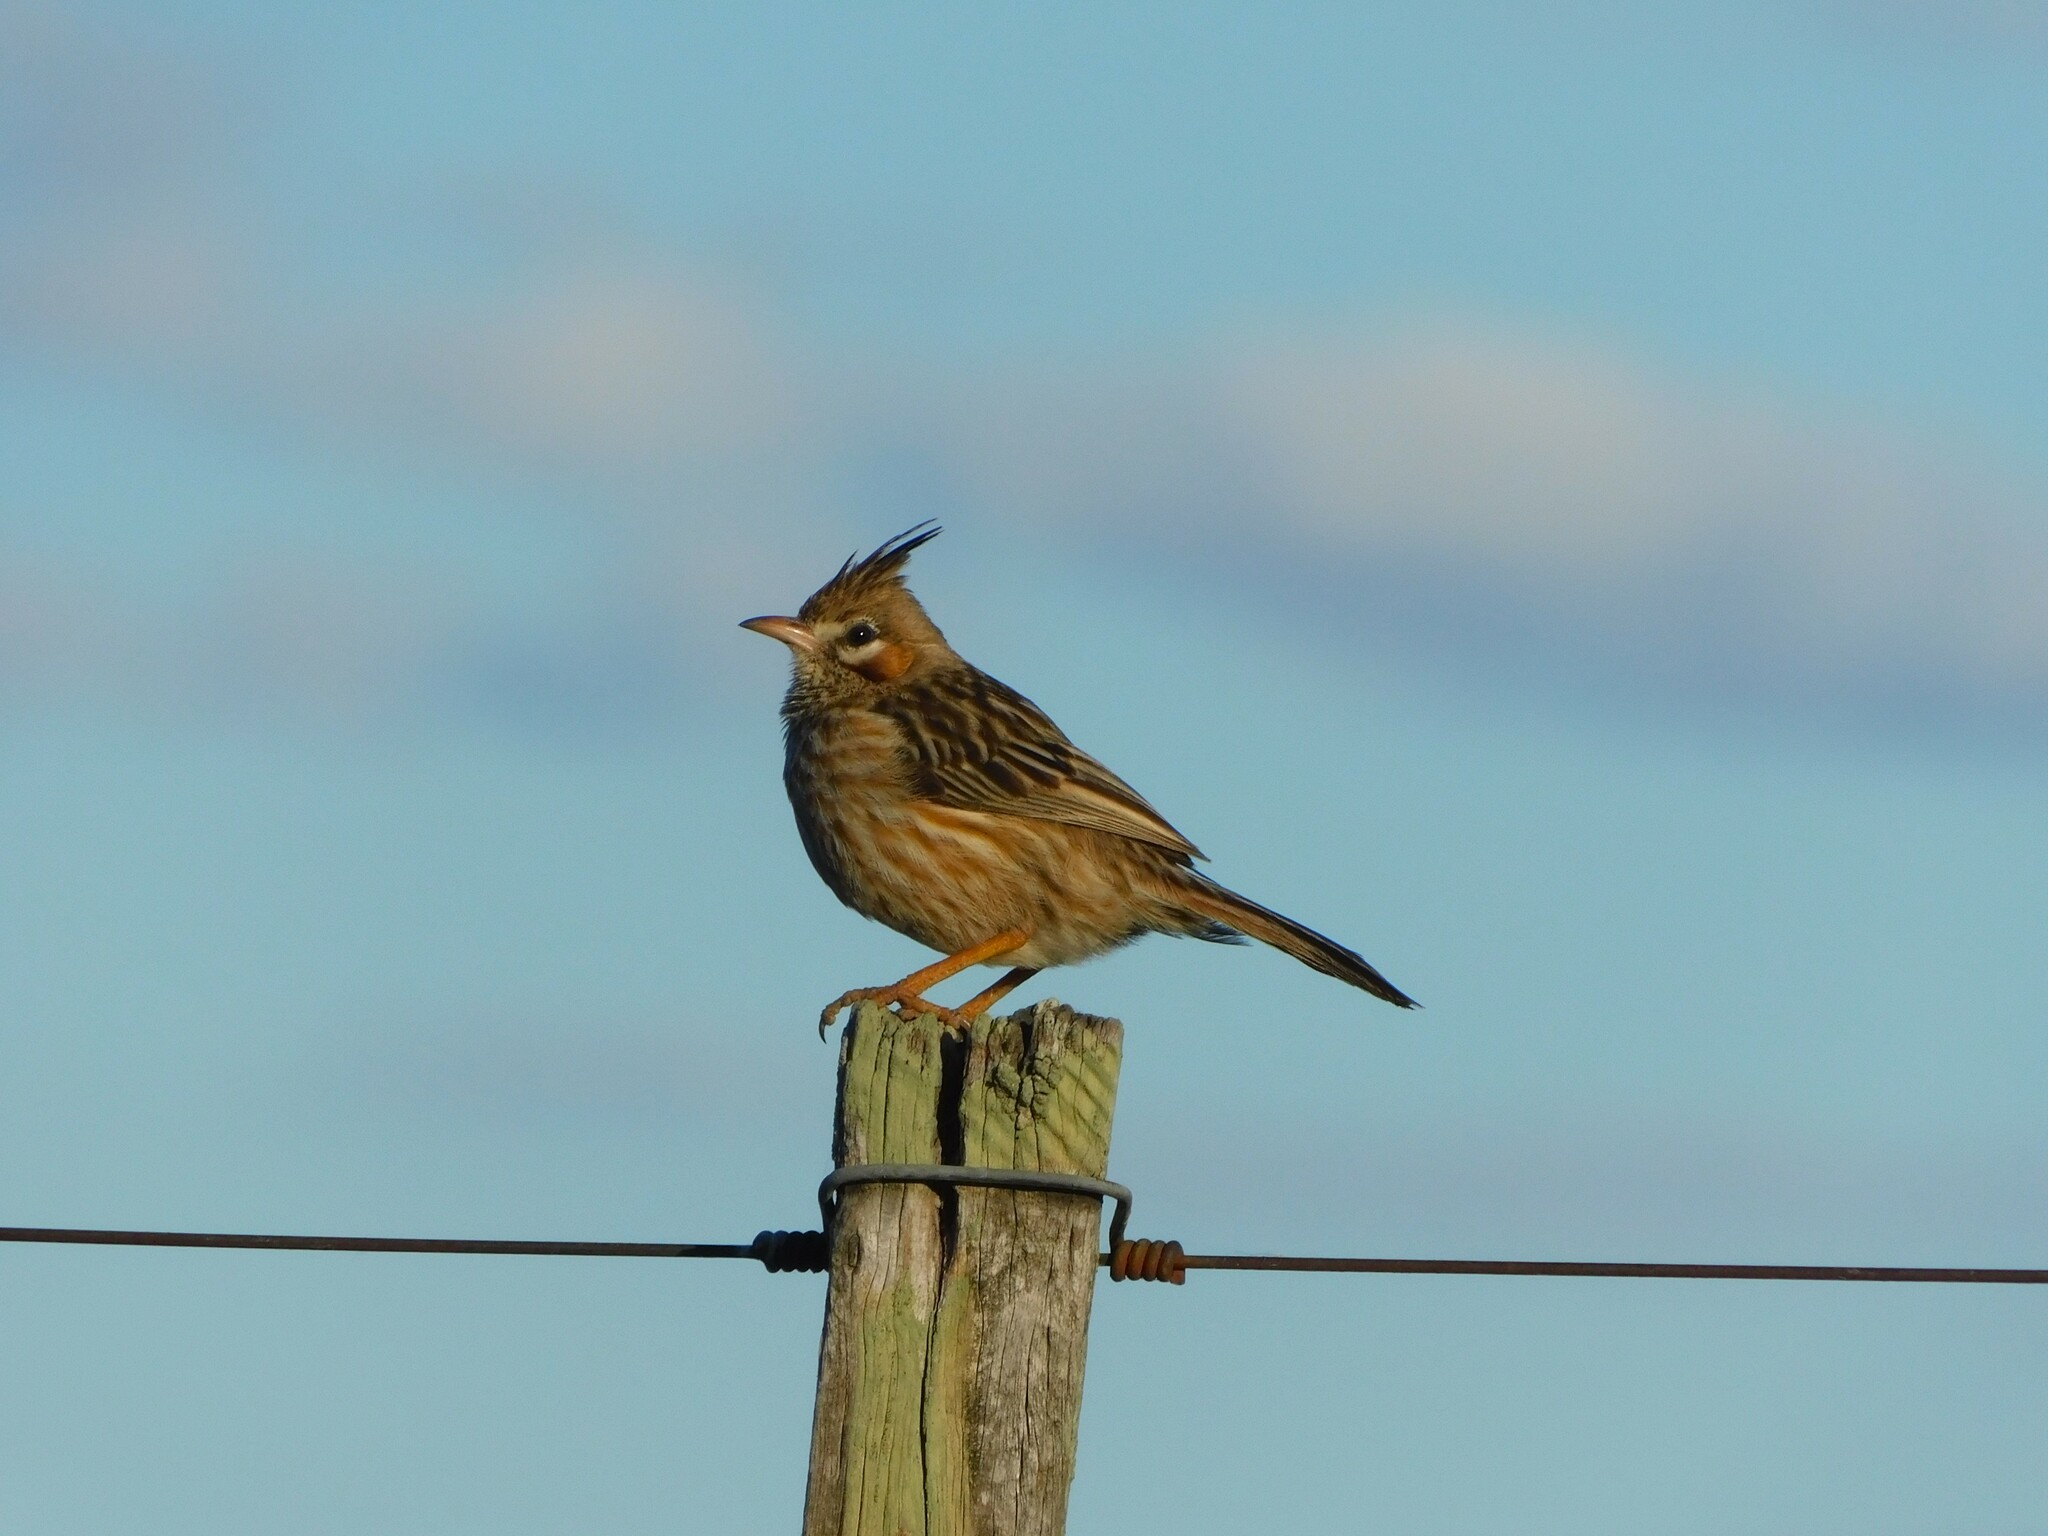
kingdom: Animalia
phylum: Chordata
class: Aves
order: Passeriformes
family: Furnariidae
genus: Coryphistera
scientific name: Coryphistera alaudina
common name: Lark-like brushrunner
